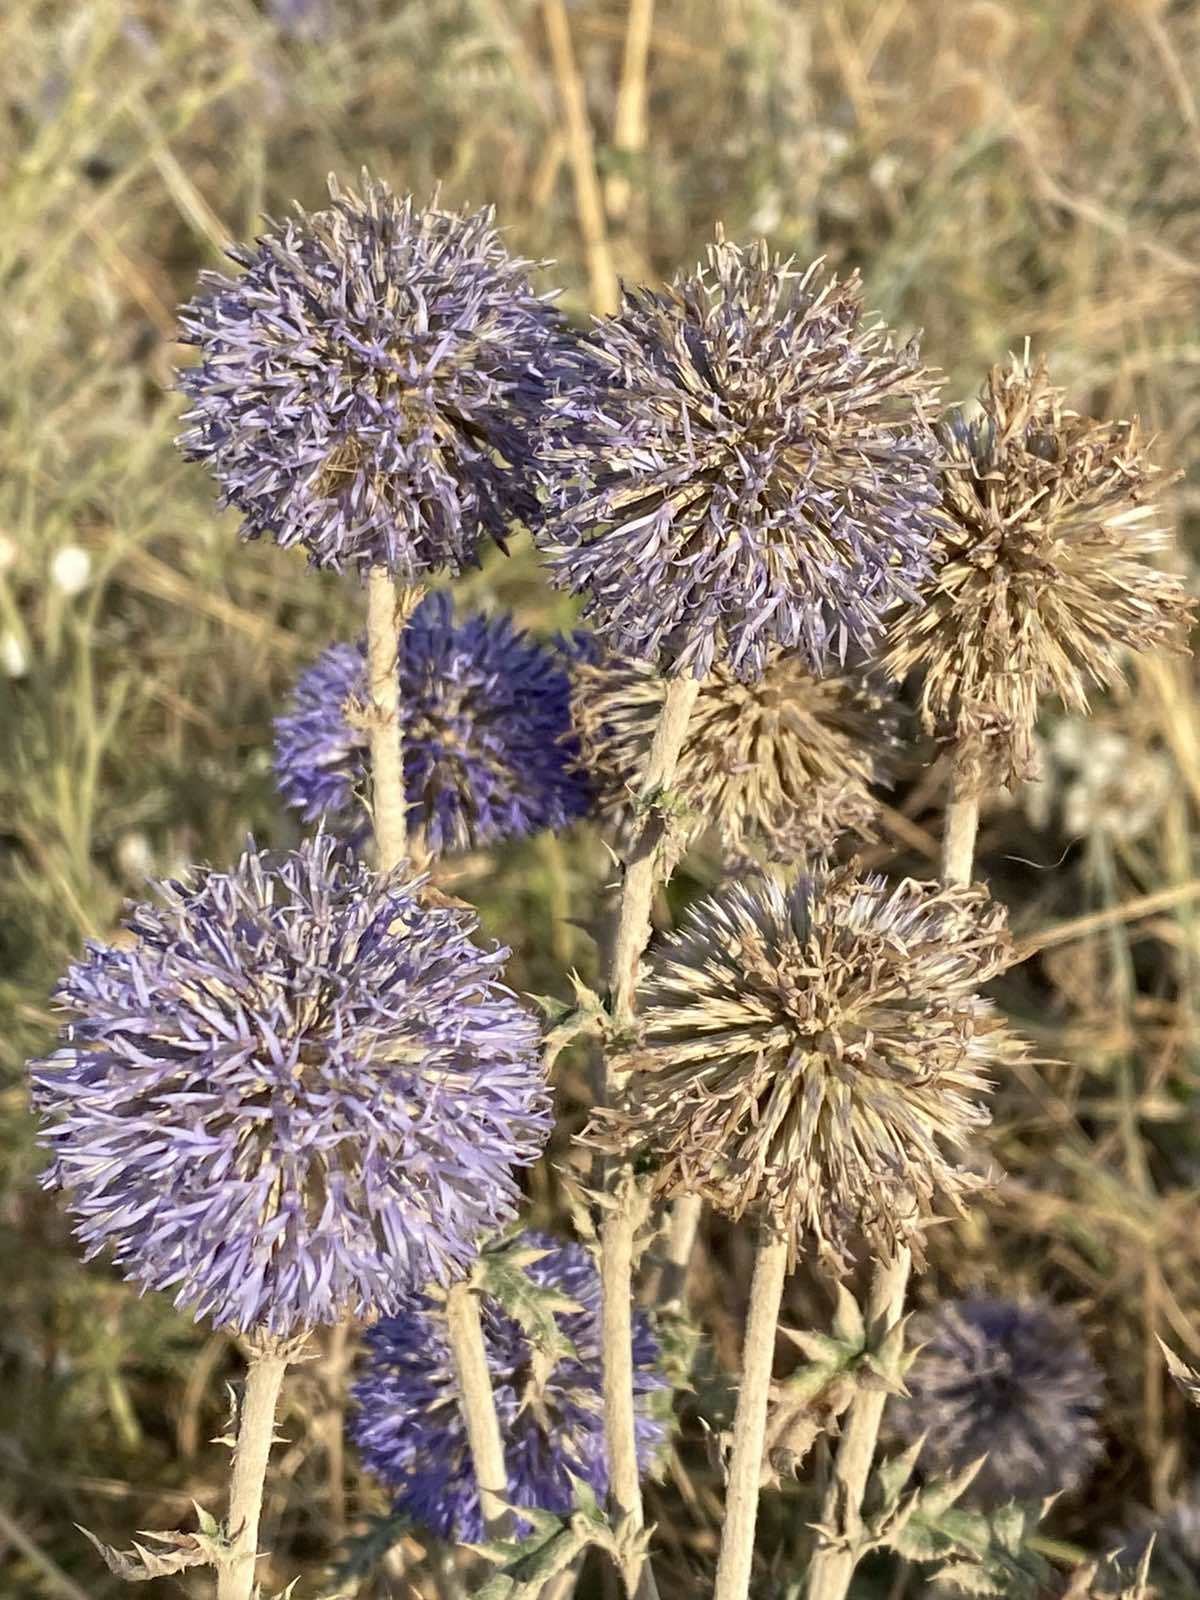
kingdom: Plantae
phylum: Tracheophyta
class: Magnoliopsida
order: Asterales
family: Asteraceae
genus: Echinops
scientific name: Echinops ritro
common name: Globe thistle
